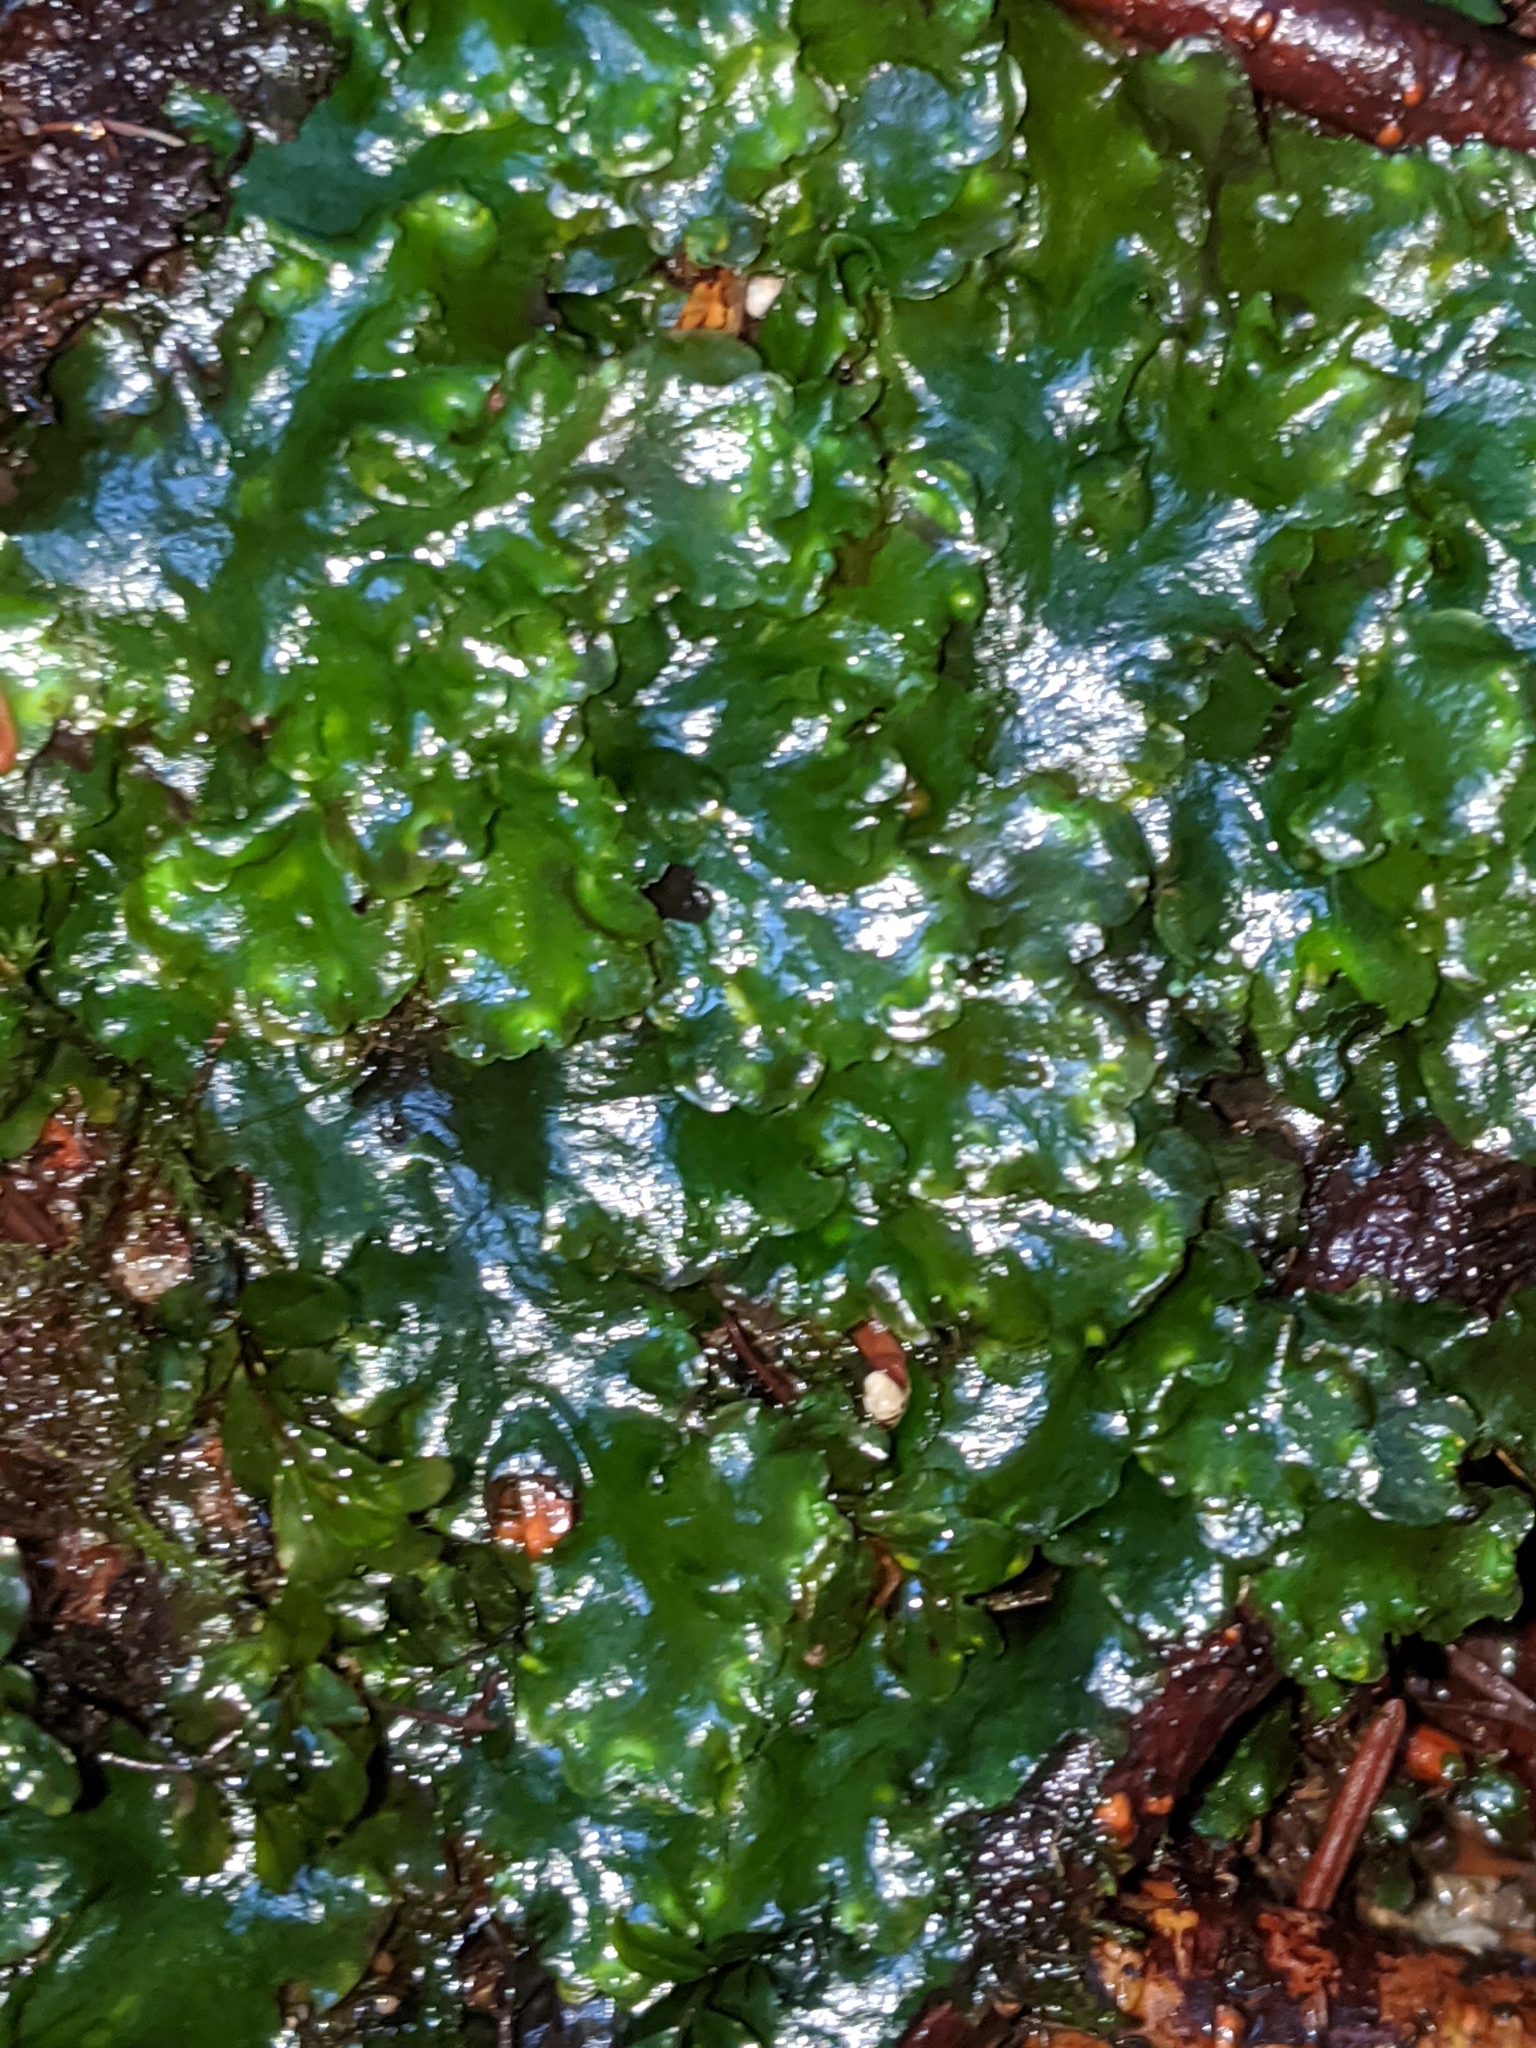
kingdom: Plantae
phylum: Marchantiophyta
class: Jungermanniopsida
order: Pelliales
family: Pelliaceae
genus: Pellia
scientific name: Pellia neesiana
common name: Nees  pellia
